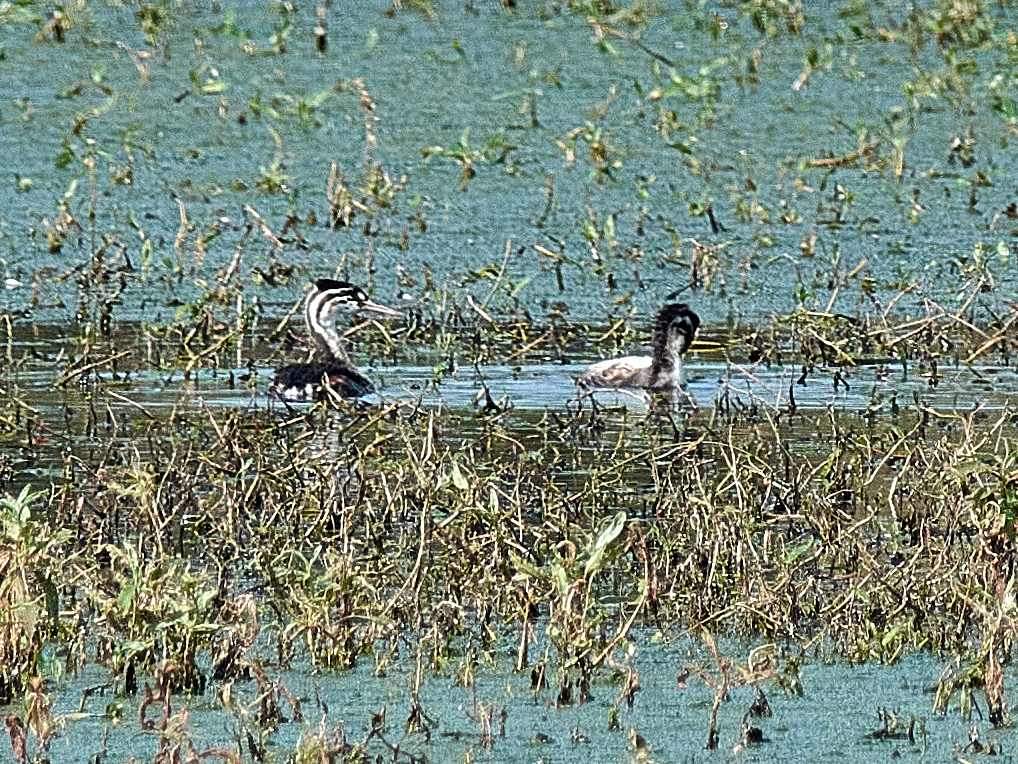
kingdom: Animalia
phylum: Chordata
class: Aves
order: Podicipediformes
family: Podicipedidae
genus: Podiceps
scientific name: Podiceps cristatus
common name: Great crested grebe
